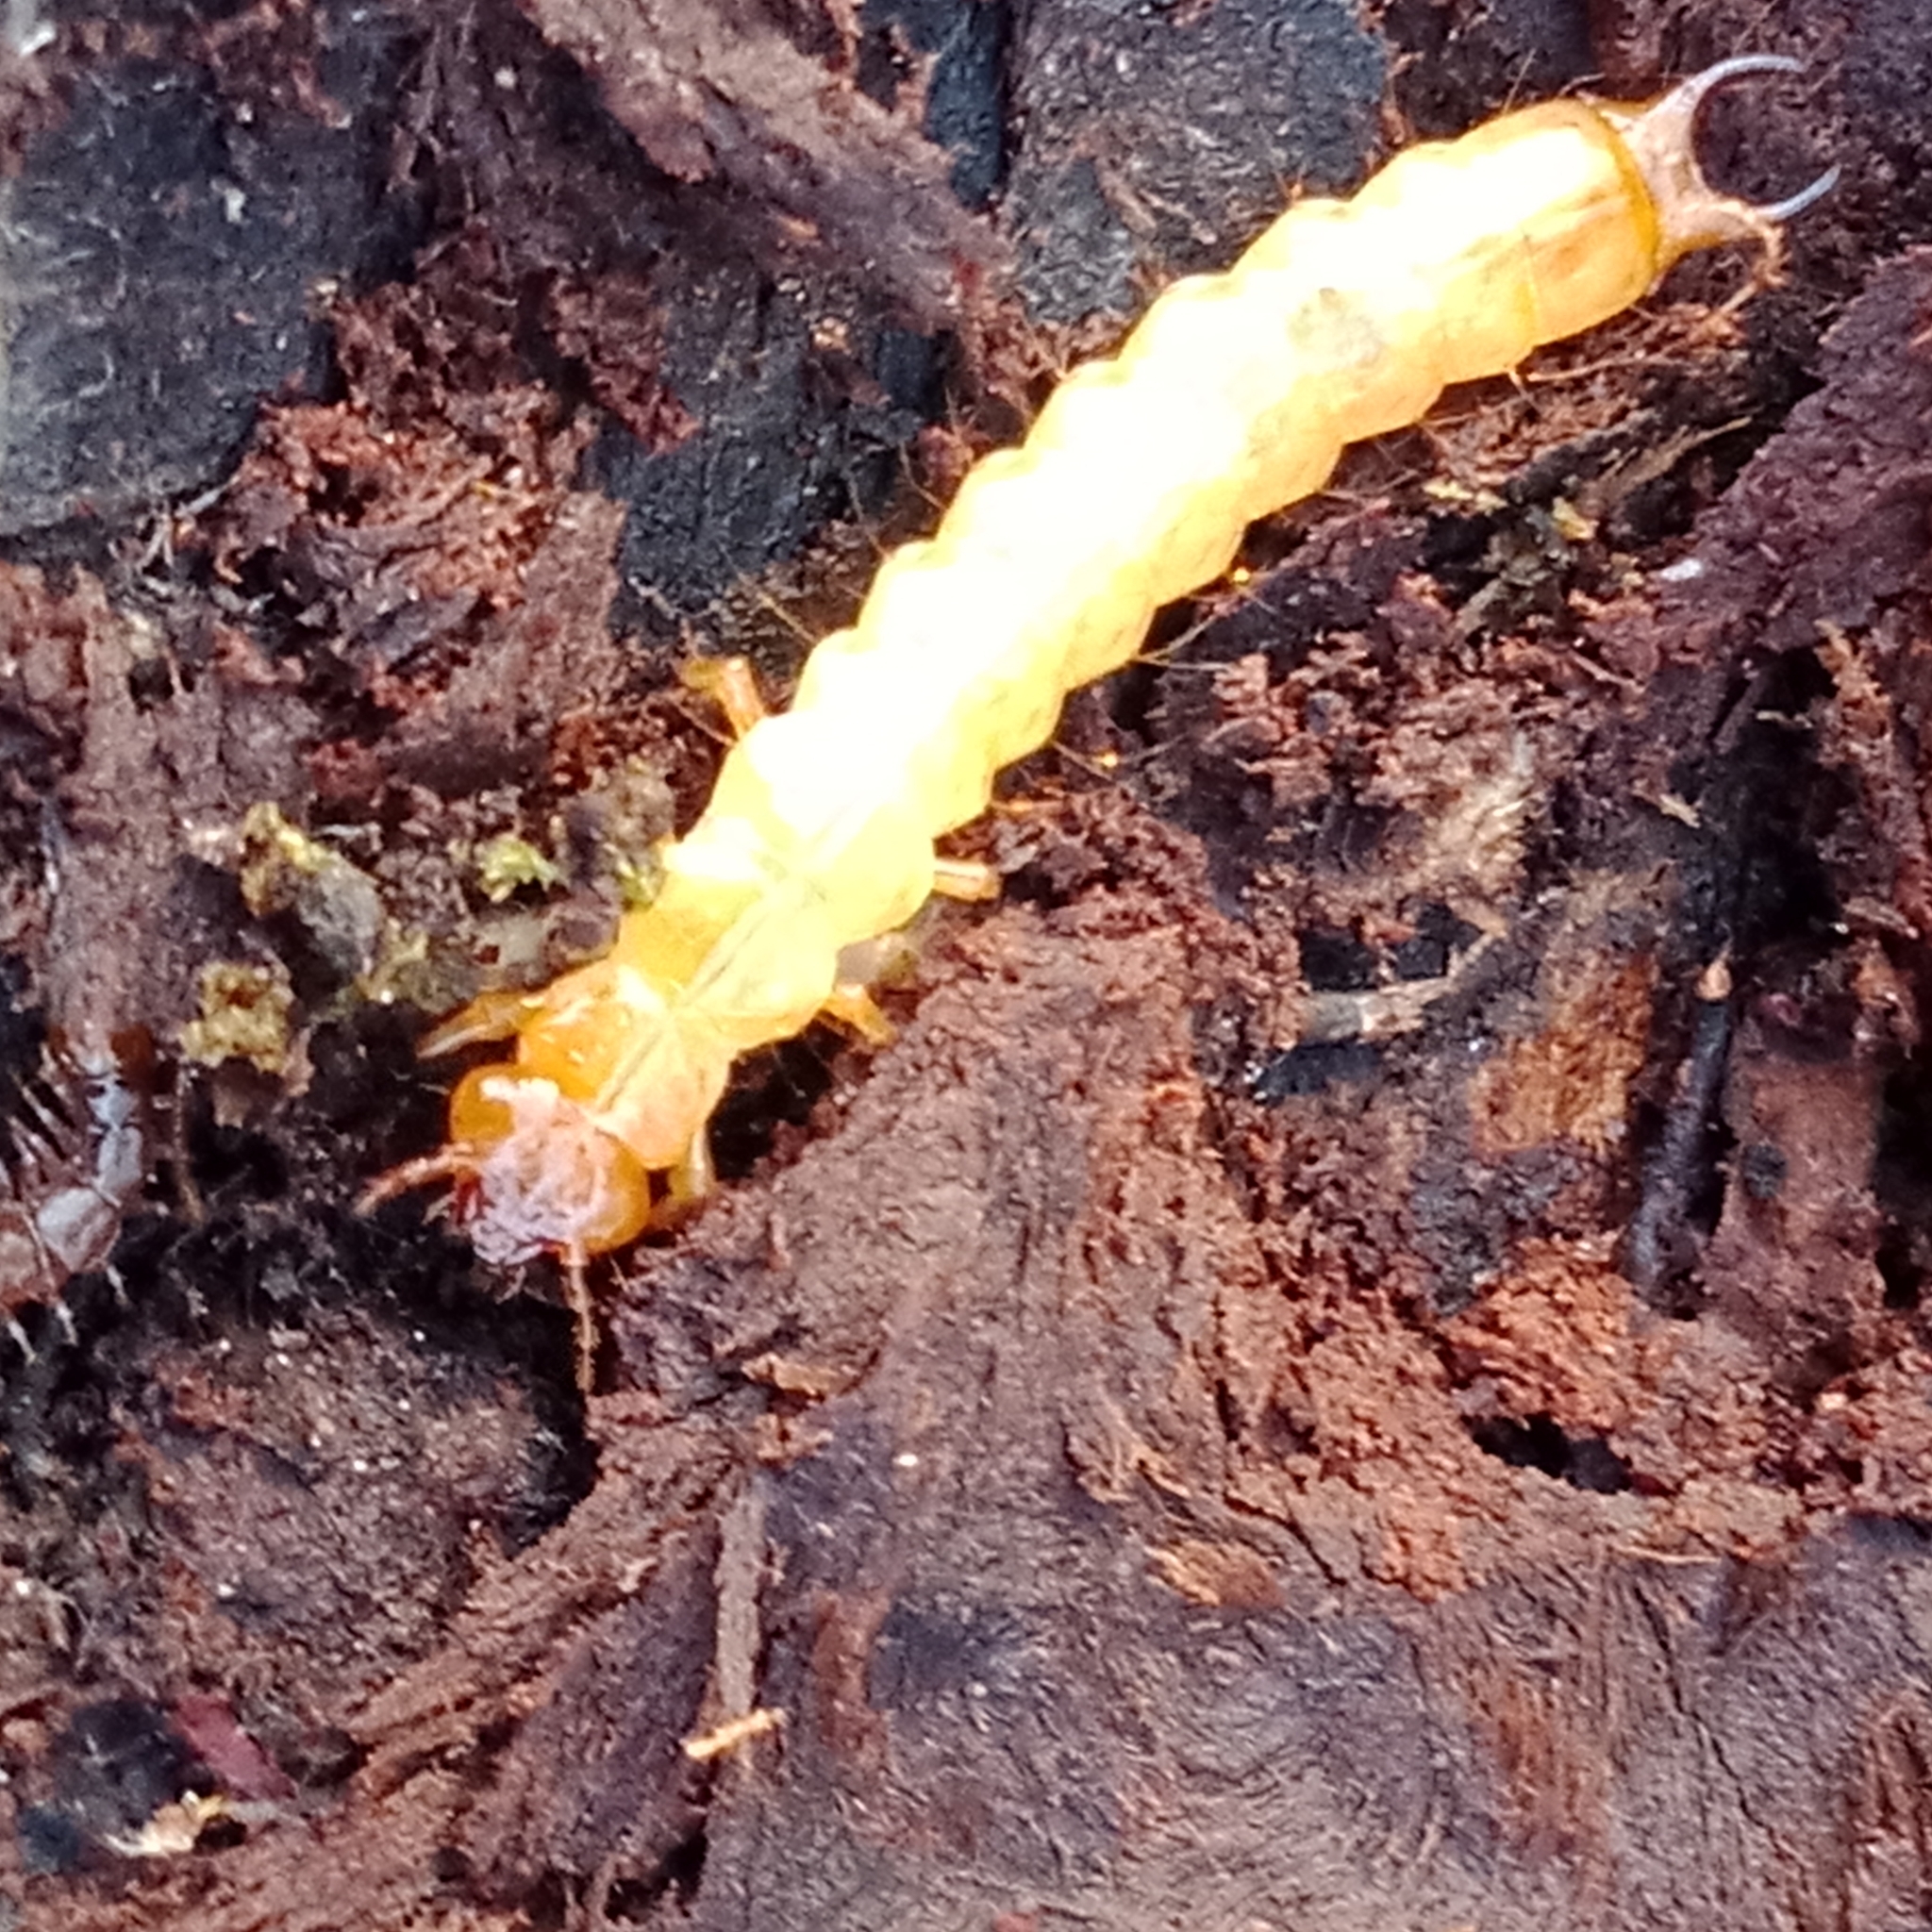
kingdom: Animalia
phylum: Arthropoda
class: Insecta
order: Coleoptera
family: Pyrochroidae
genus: Schizotus
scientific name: Schizotus pectinicornis
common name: Scarce cardinal beetle
